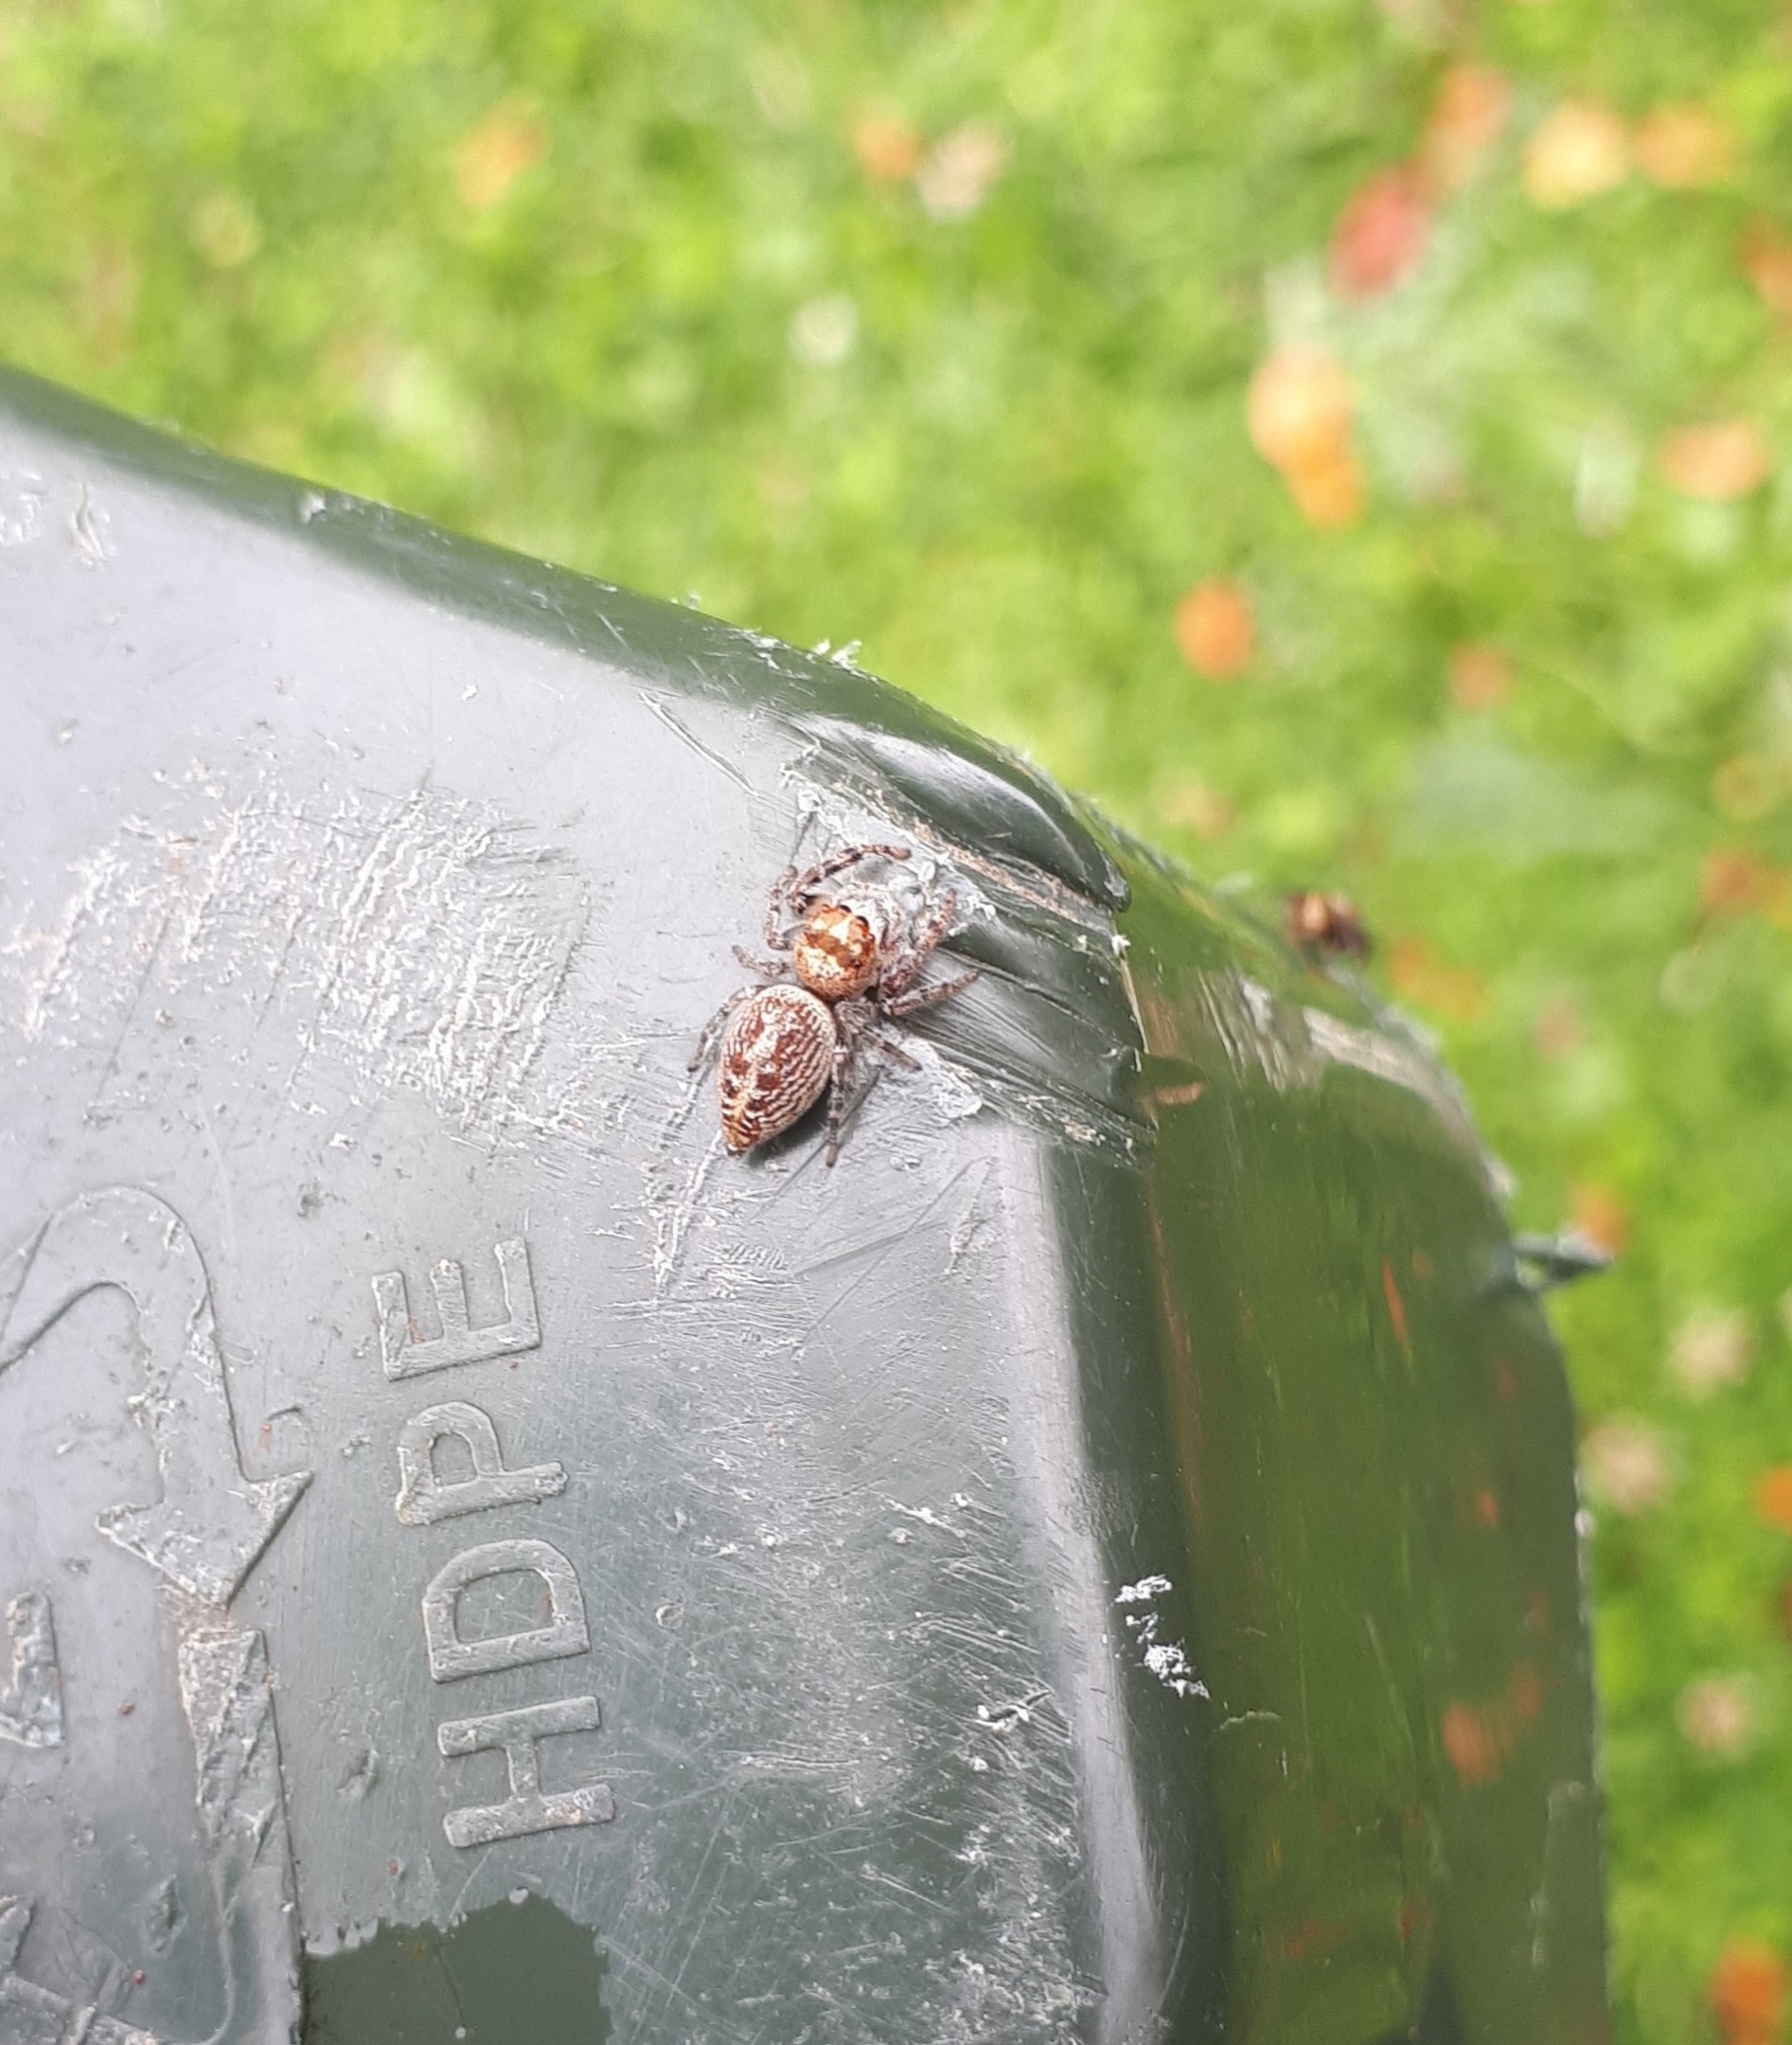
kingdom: Animalia
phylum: Arthropoda
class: Arachnida
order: Araneae
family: Salticidae
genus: Opisthoncus
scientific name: Opisthoncus polyphemus
